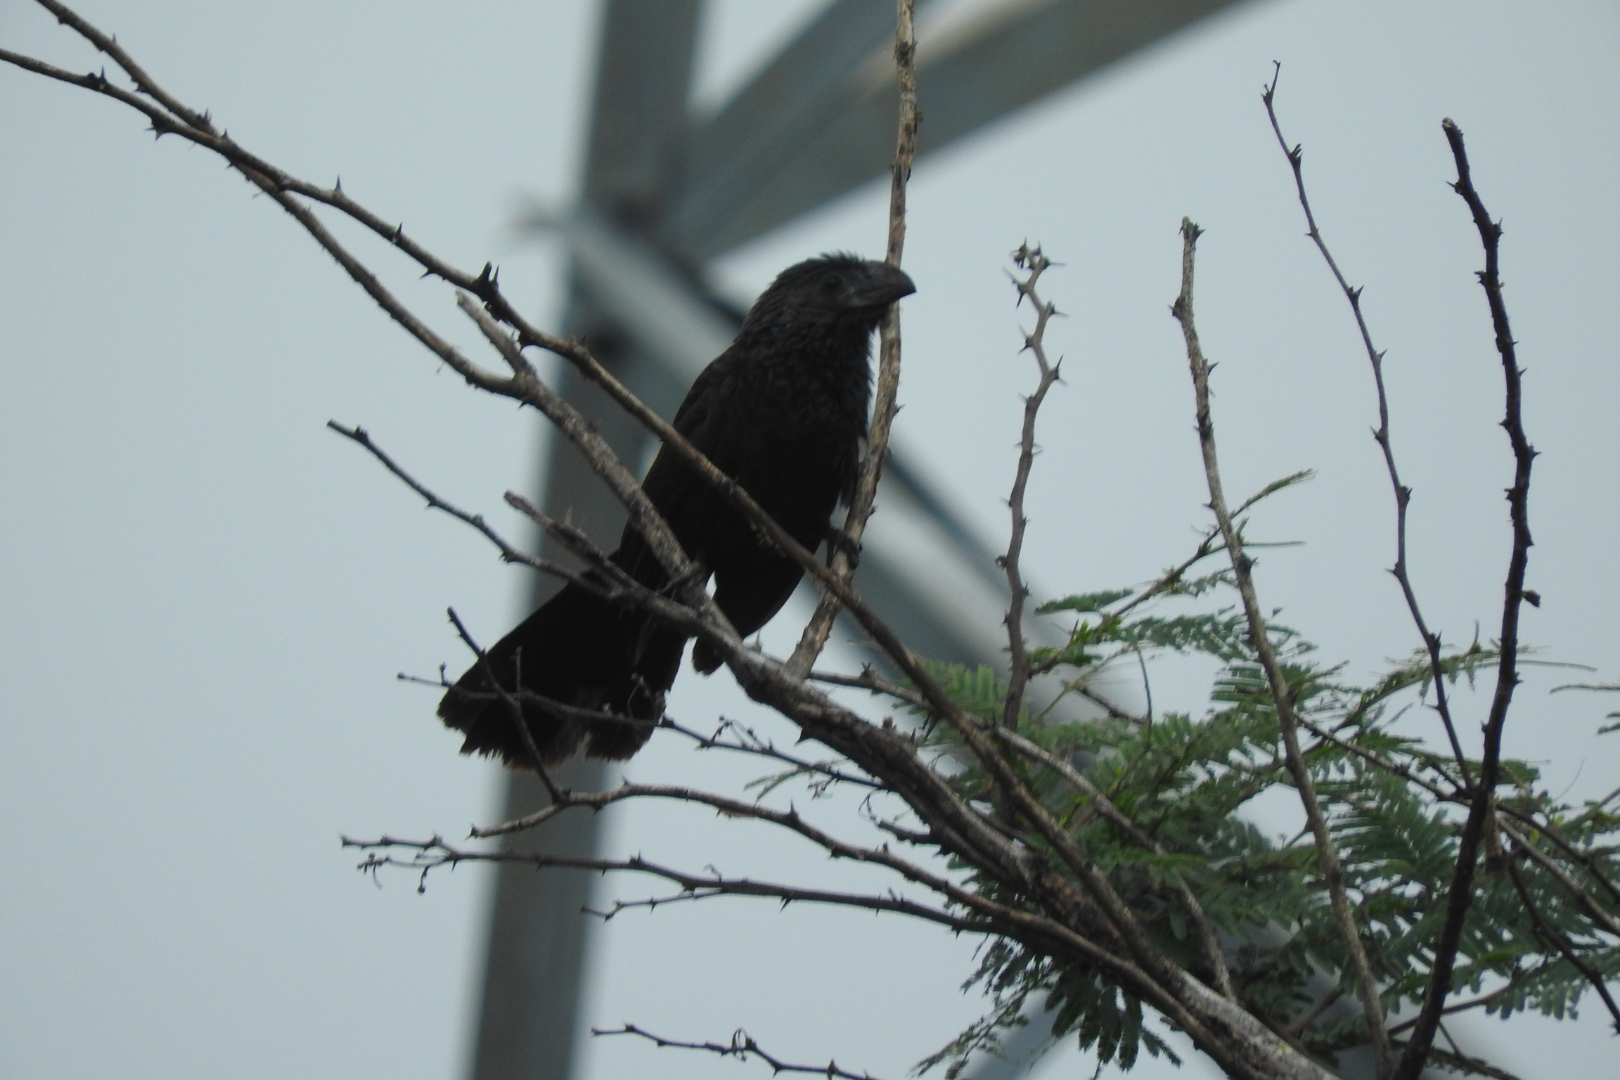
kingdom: Animalia
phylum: Chordata
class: Aves
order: Cuculiformes
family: Cuculidae
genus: Crotophaga
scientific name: Crotophaga sulcirostris
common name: Groove-billed ani
